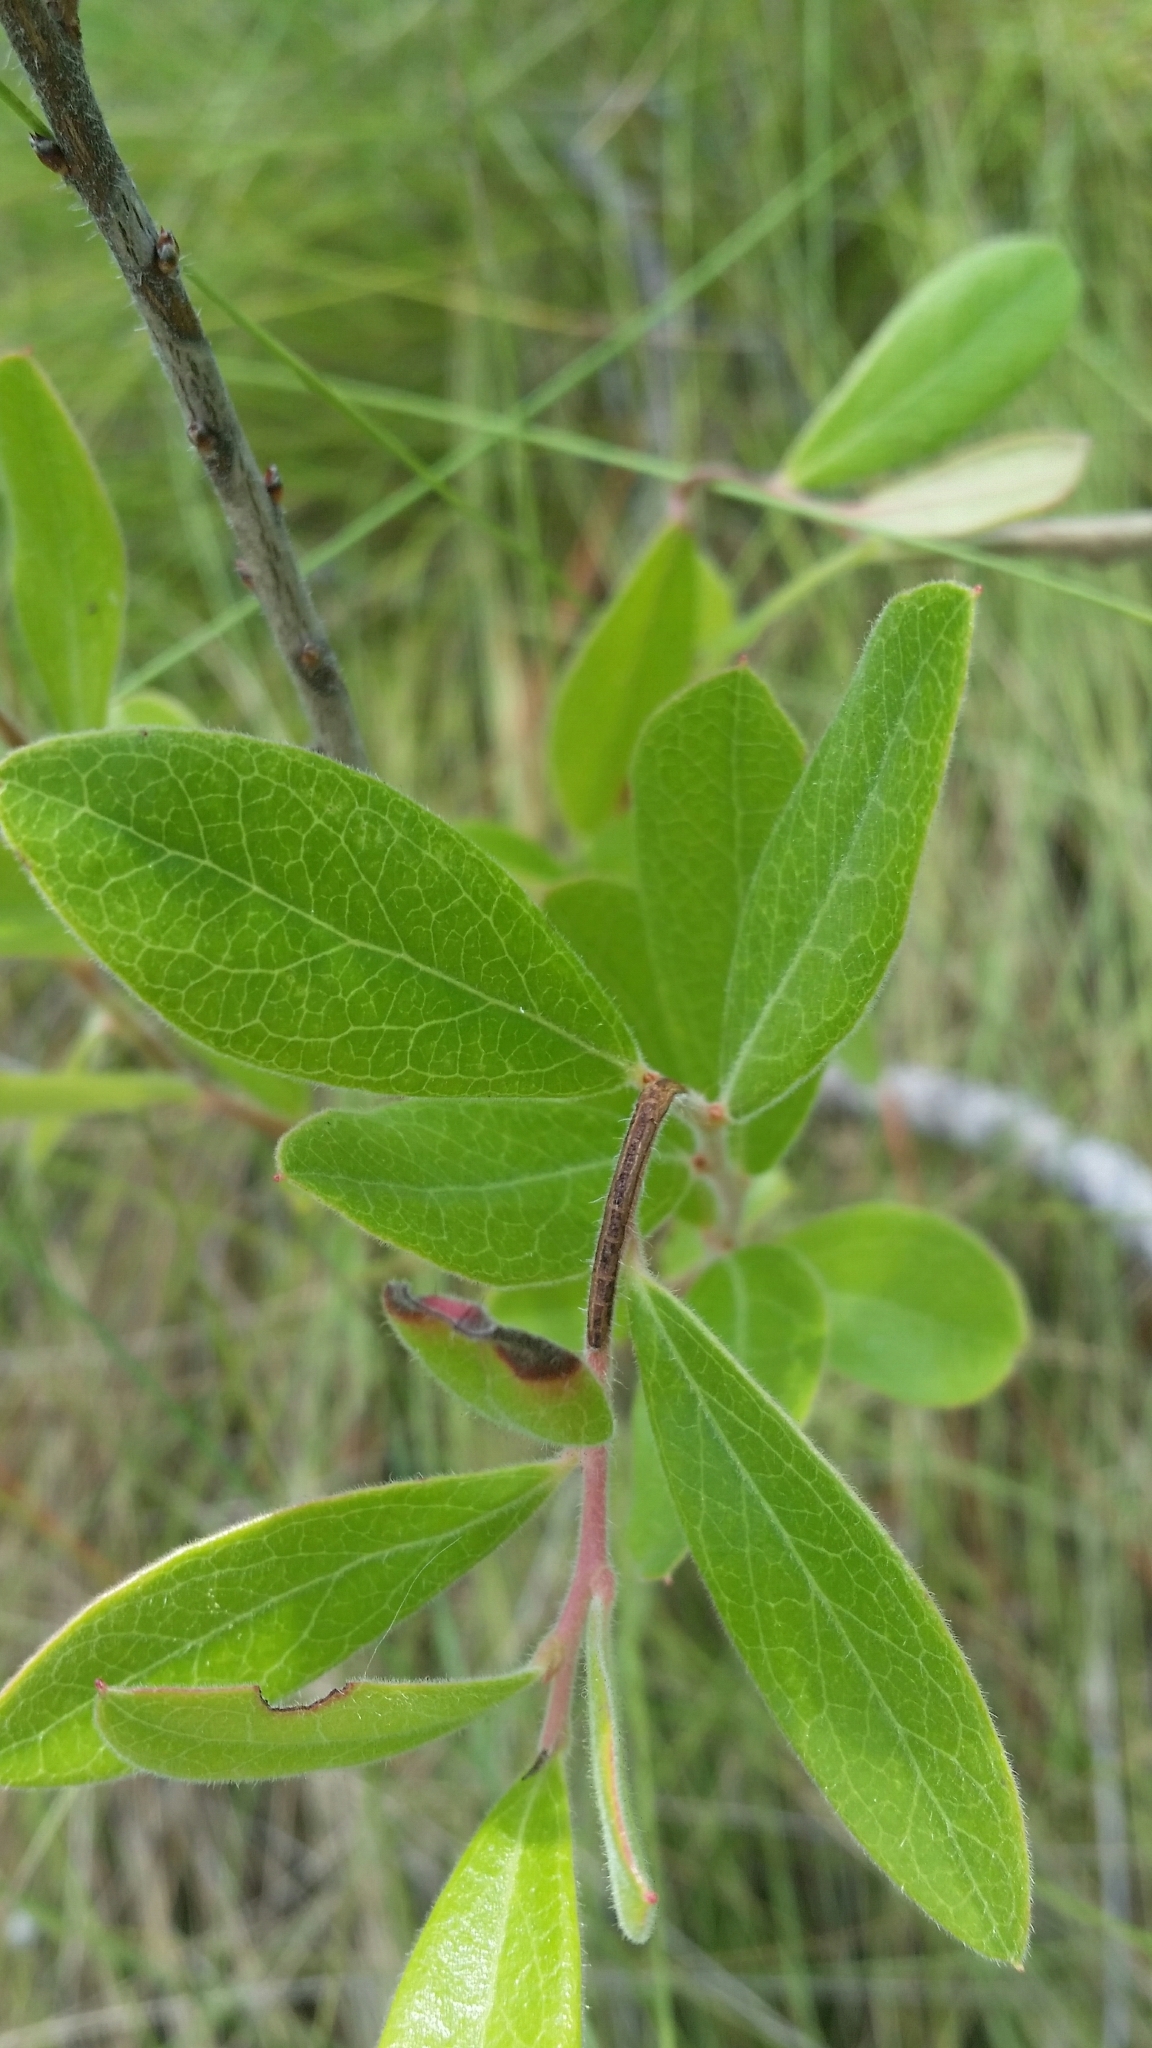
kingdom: Plantae
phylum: Tracheophyta
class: Magnoliopsida
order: Ericales
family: Ericaceae
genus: Gaylussacia
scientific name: Gaylussacia mosieri
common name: Hirsute huckleberry
